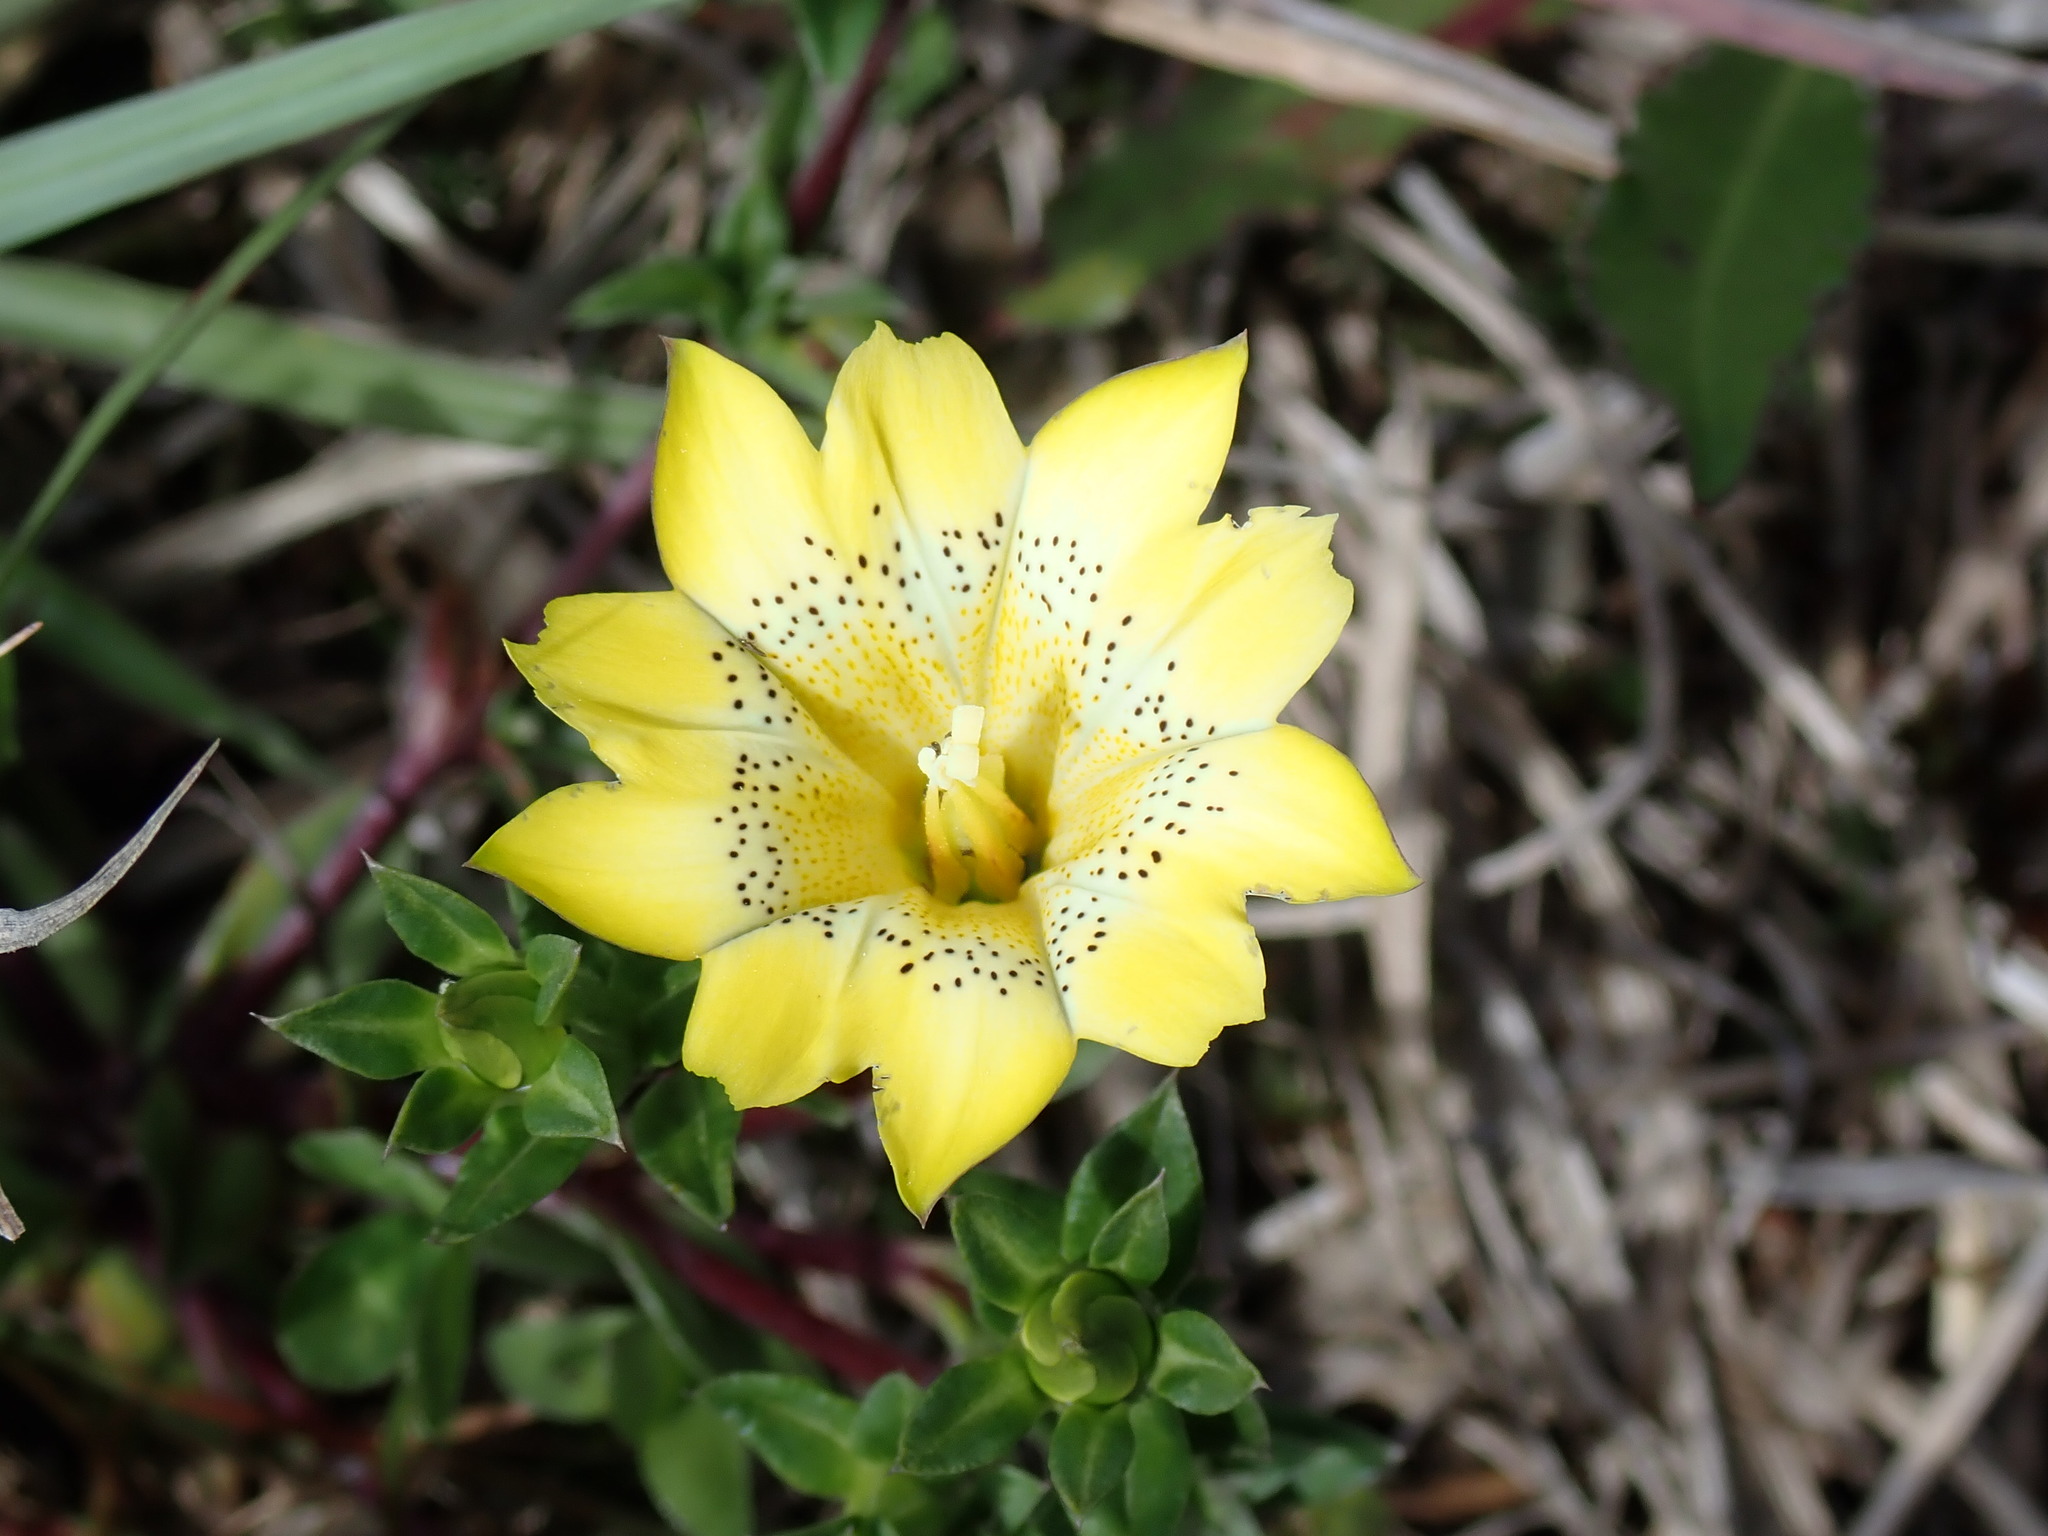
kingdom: Plantae
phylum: Tracheophyta
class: Magnoliopsida
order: Gentianales
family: Gentianaceae
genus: Gentiana
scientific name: Gentiana scabrida
